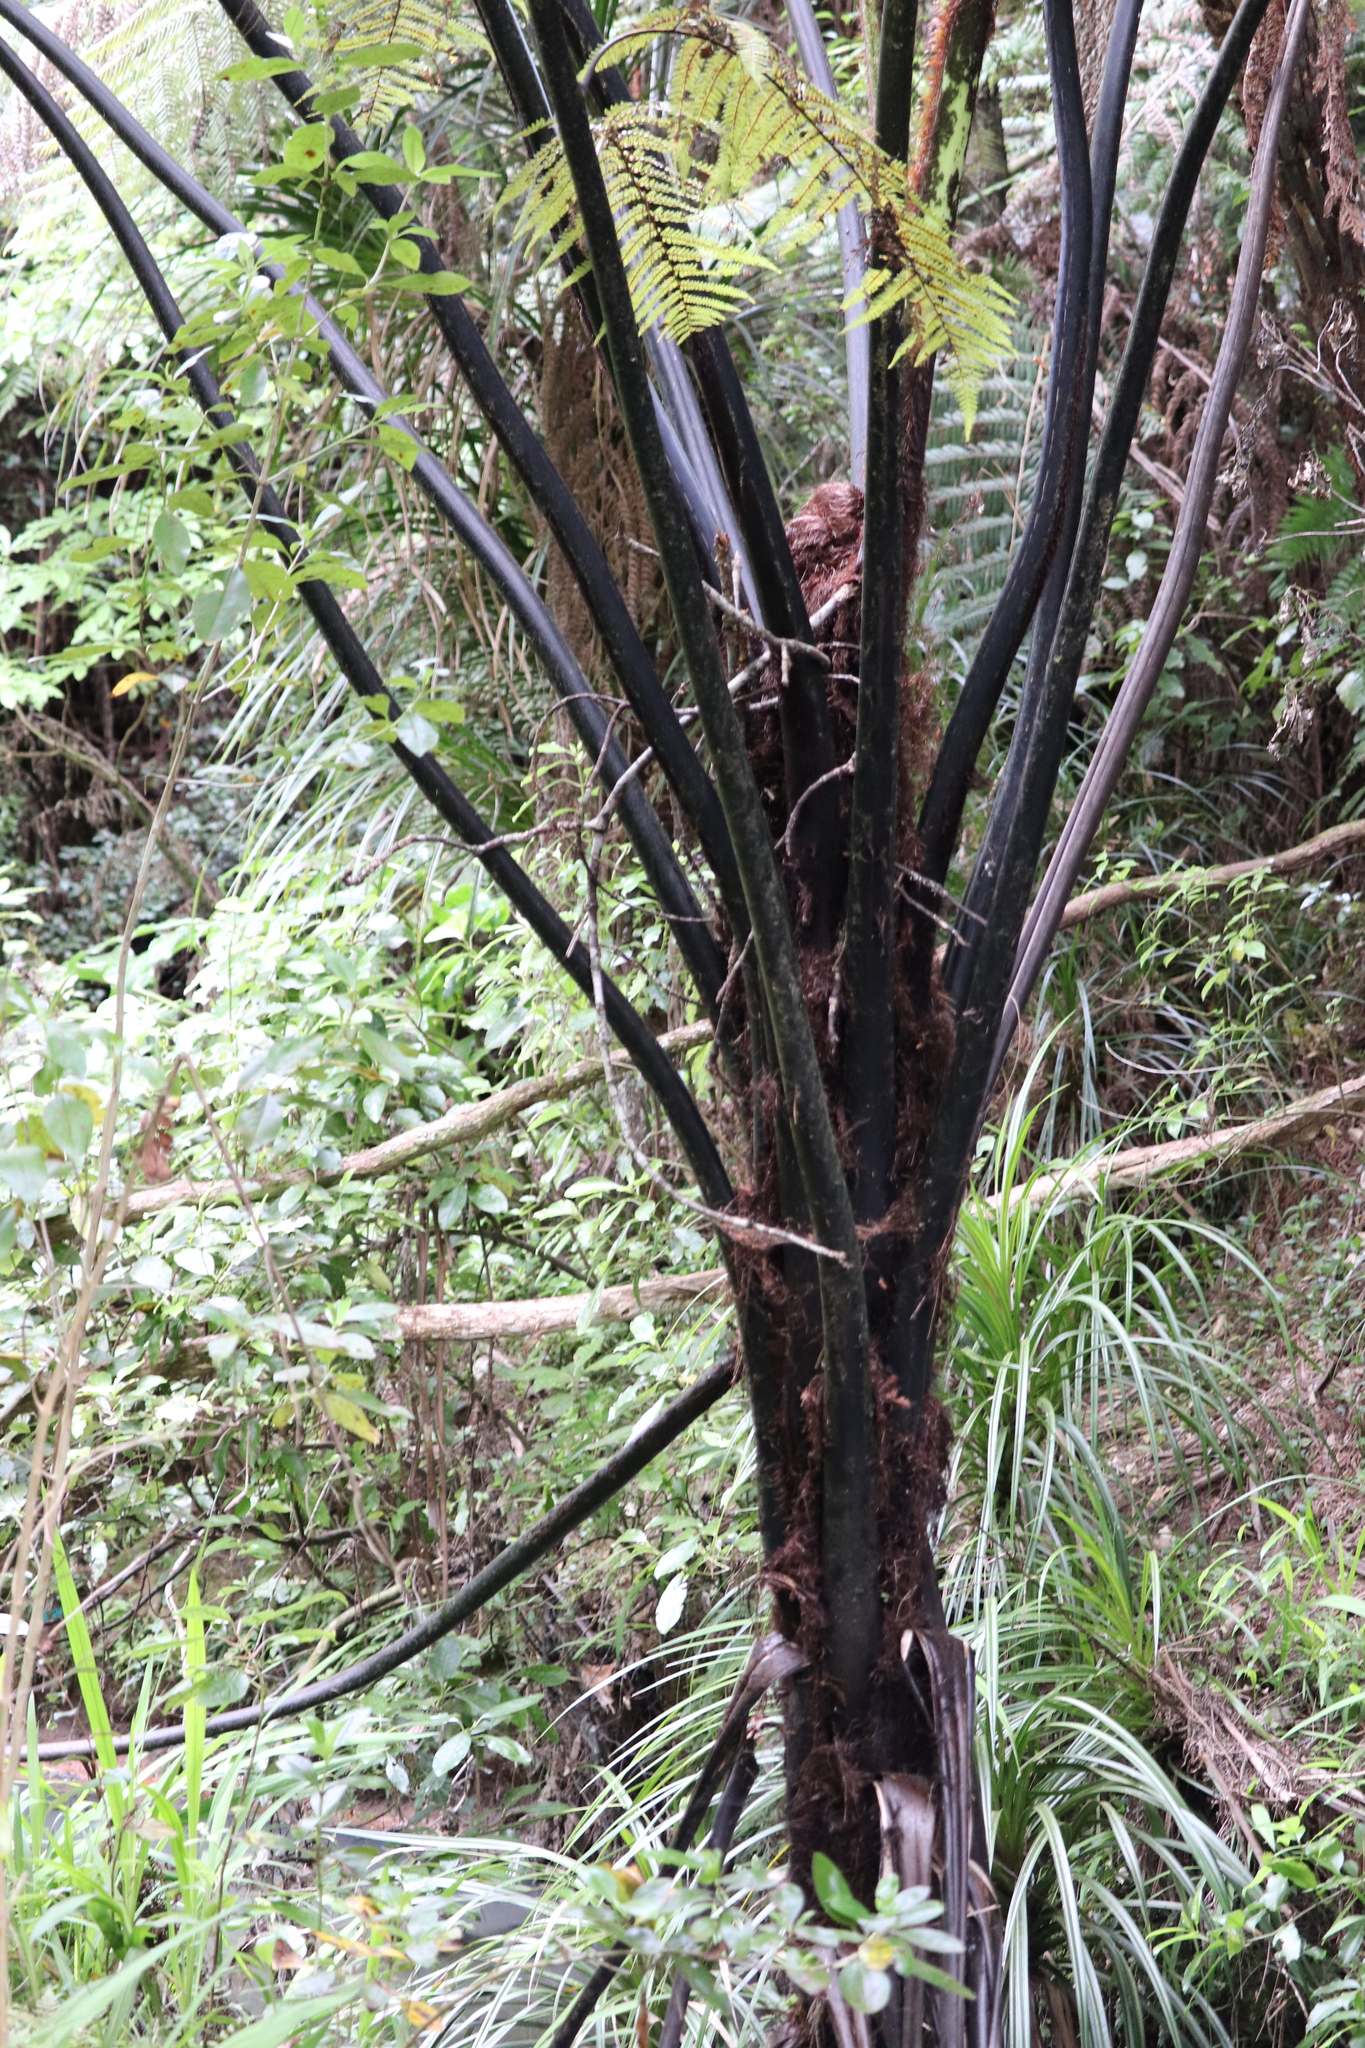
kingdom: Plantae
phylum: Tracheophyta
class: Polypodiopsida
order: Cyatheales
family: Cyatheaceae
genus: Sphaeropteris
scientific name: Sphaeropteris medullaris
